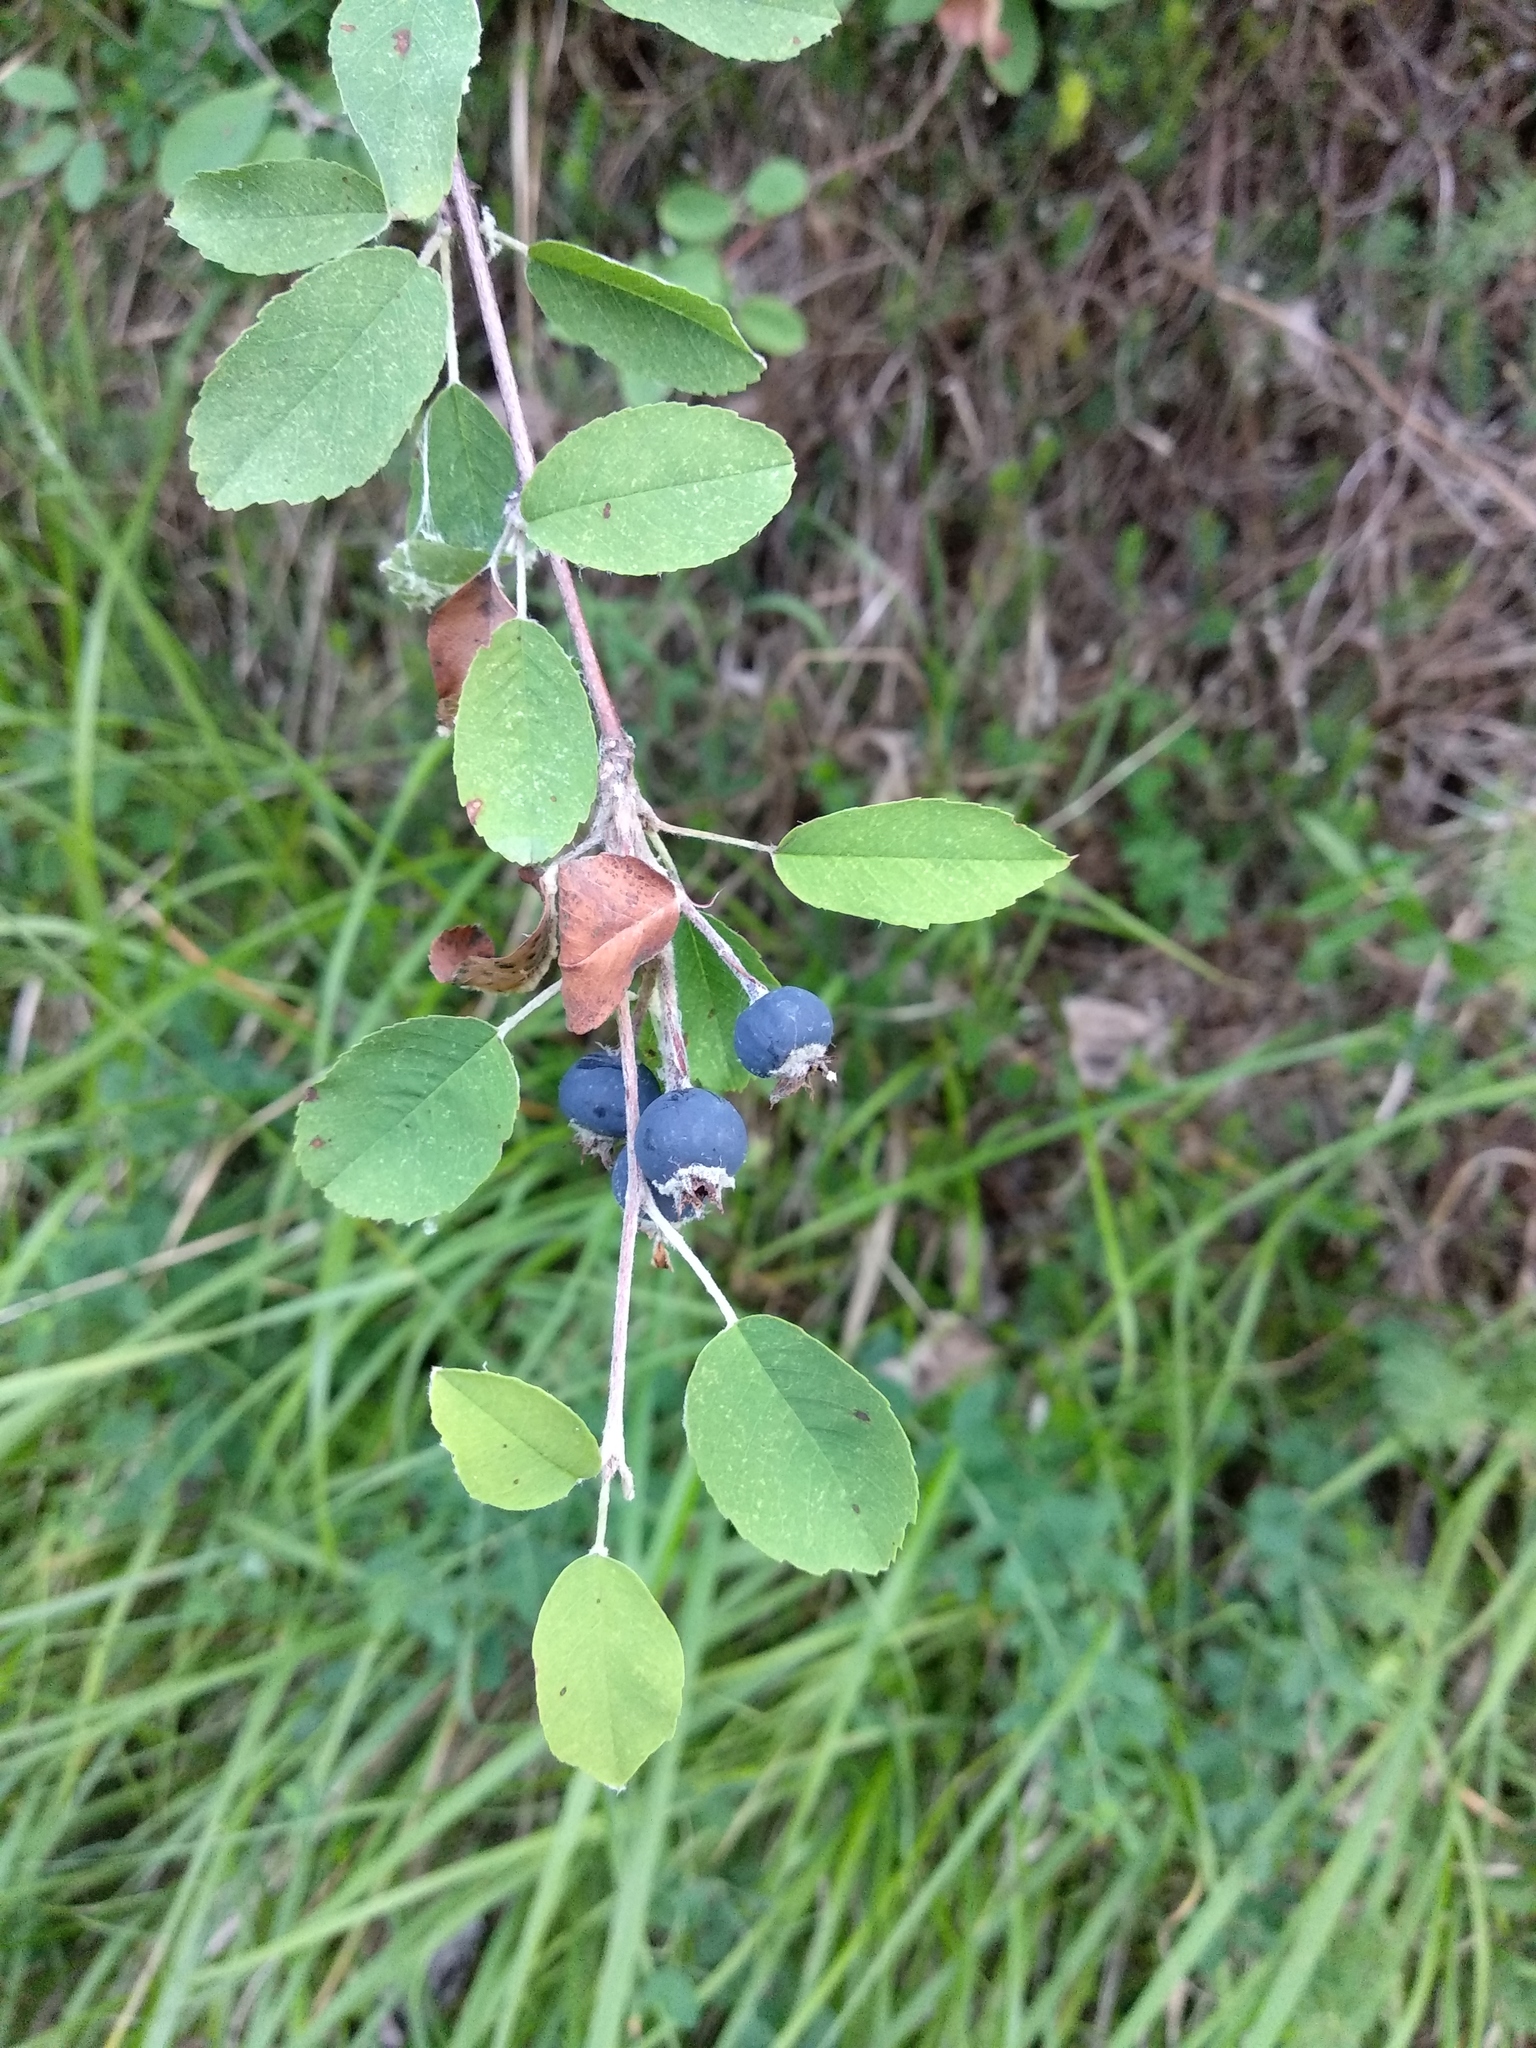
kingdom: Plantae
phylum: Tracheophyta
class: Magnoliopsida
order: Rosales
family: Rosaceae
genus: Amelanchier
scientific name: Amelanchier ovalis
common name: Serviceberry
